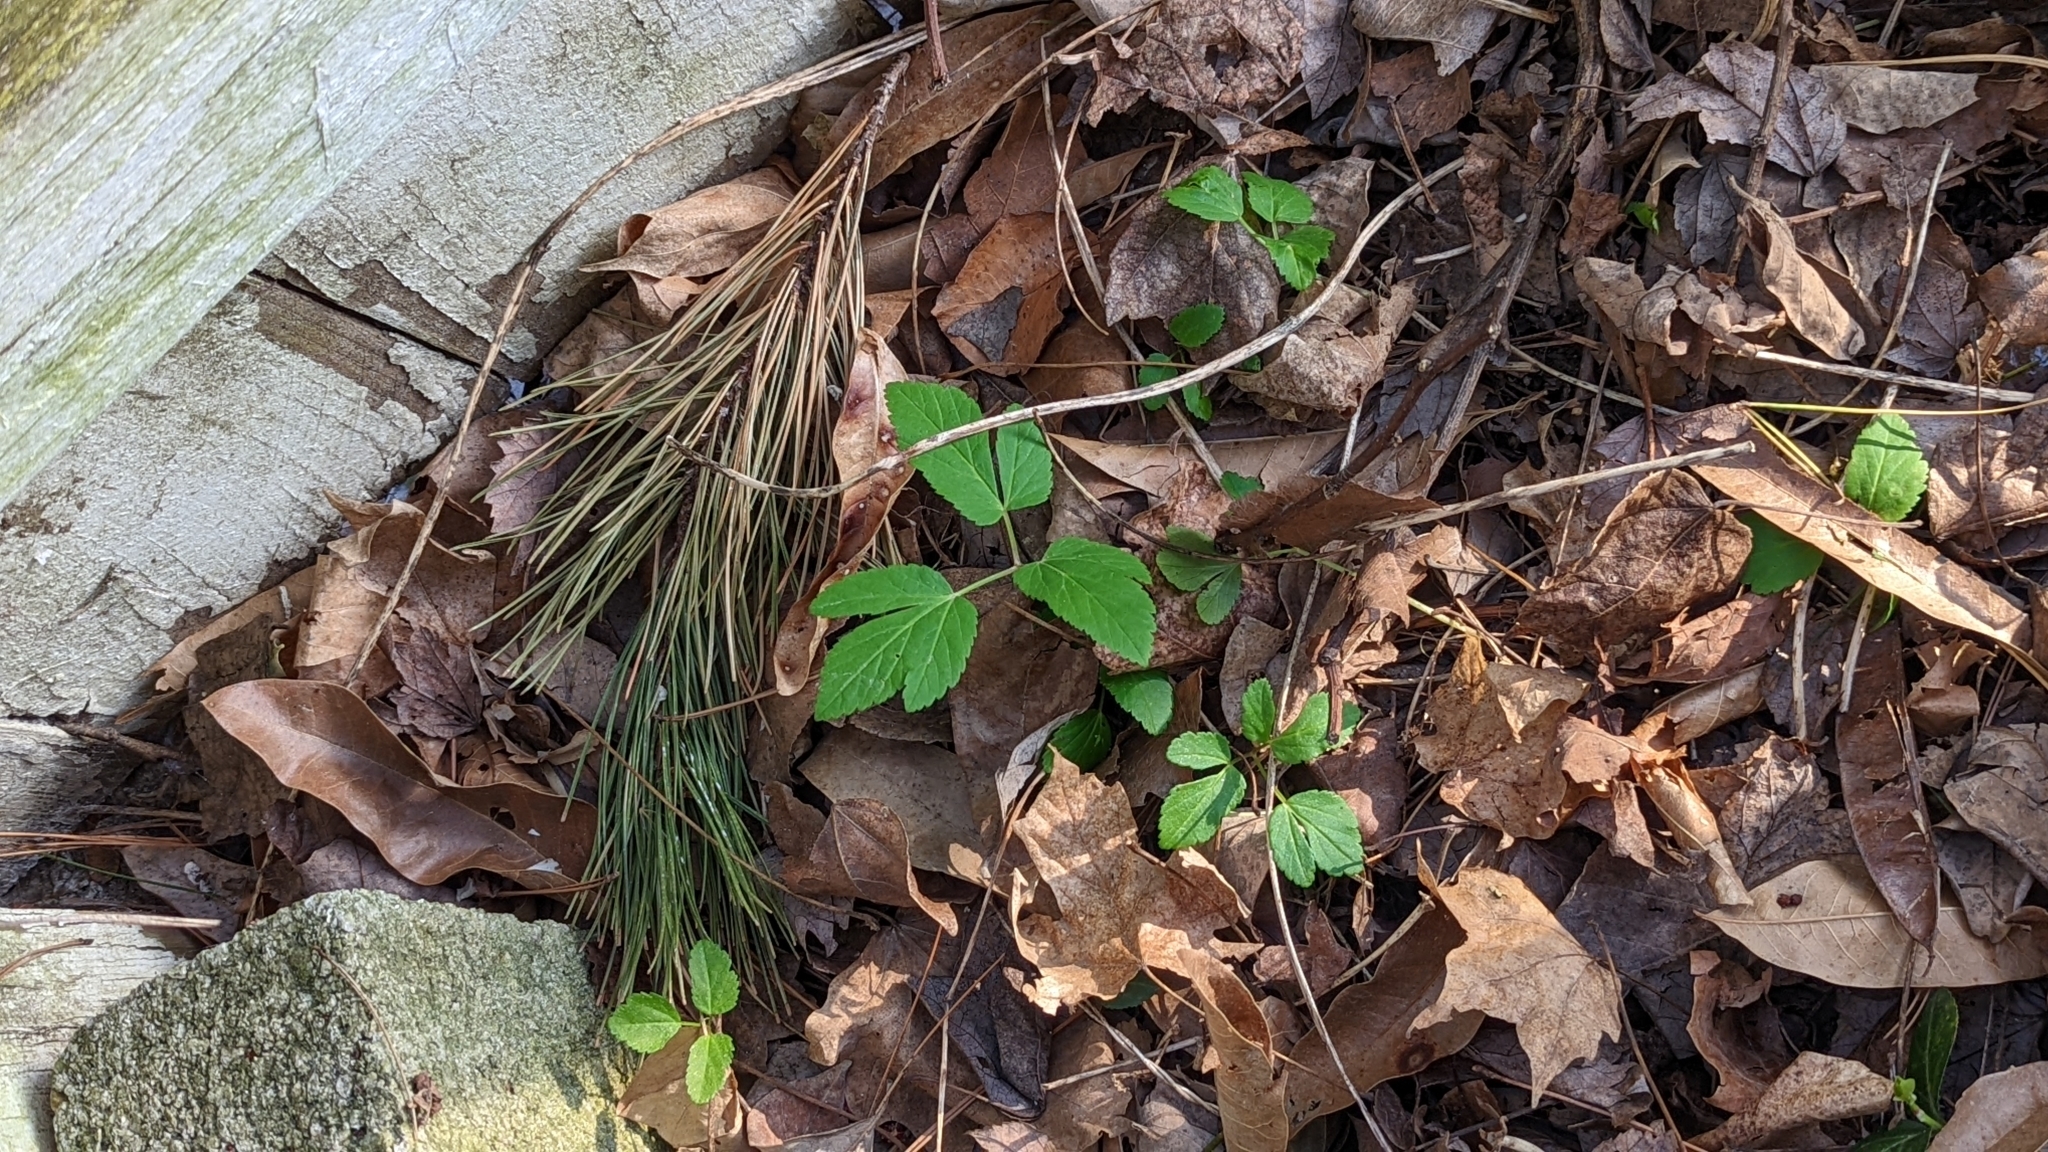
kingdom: Plantae
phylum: Tracheophyta
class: Magnoliopsida
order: Apiales
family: Apiaceae
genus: Aegopodium
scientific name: Aegopodium podagraria
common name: Ground-elder
